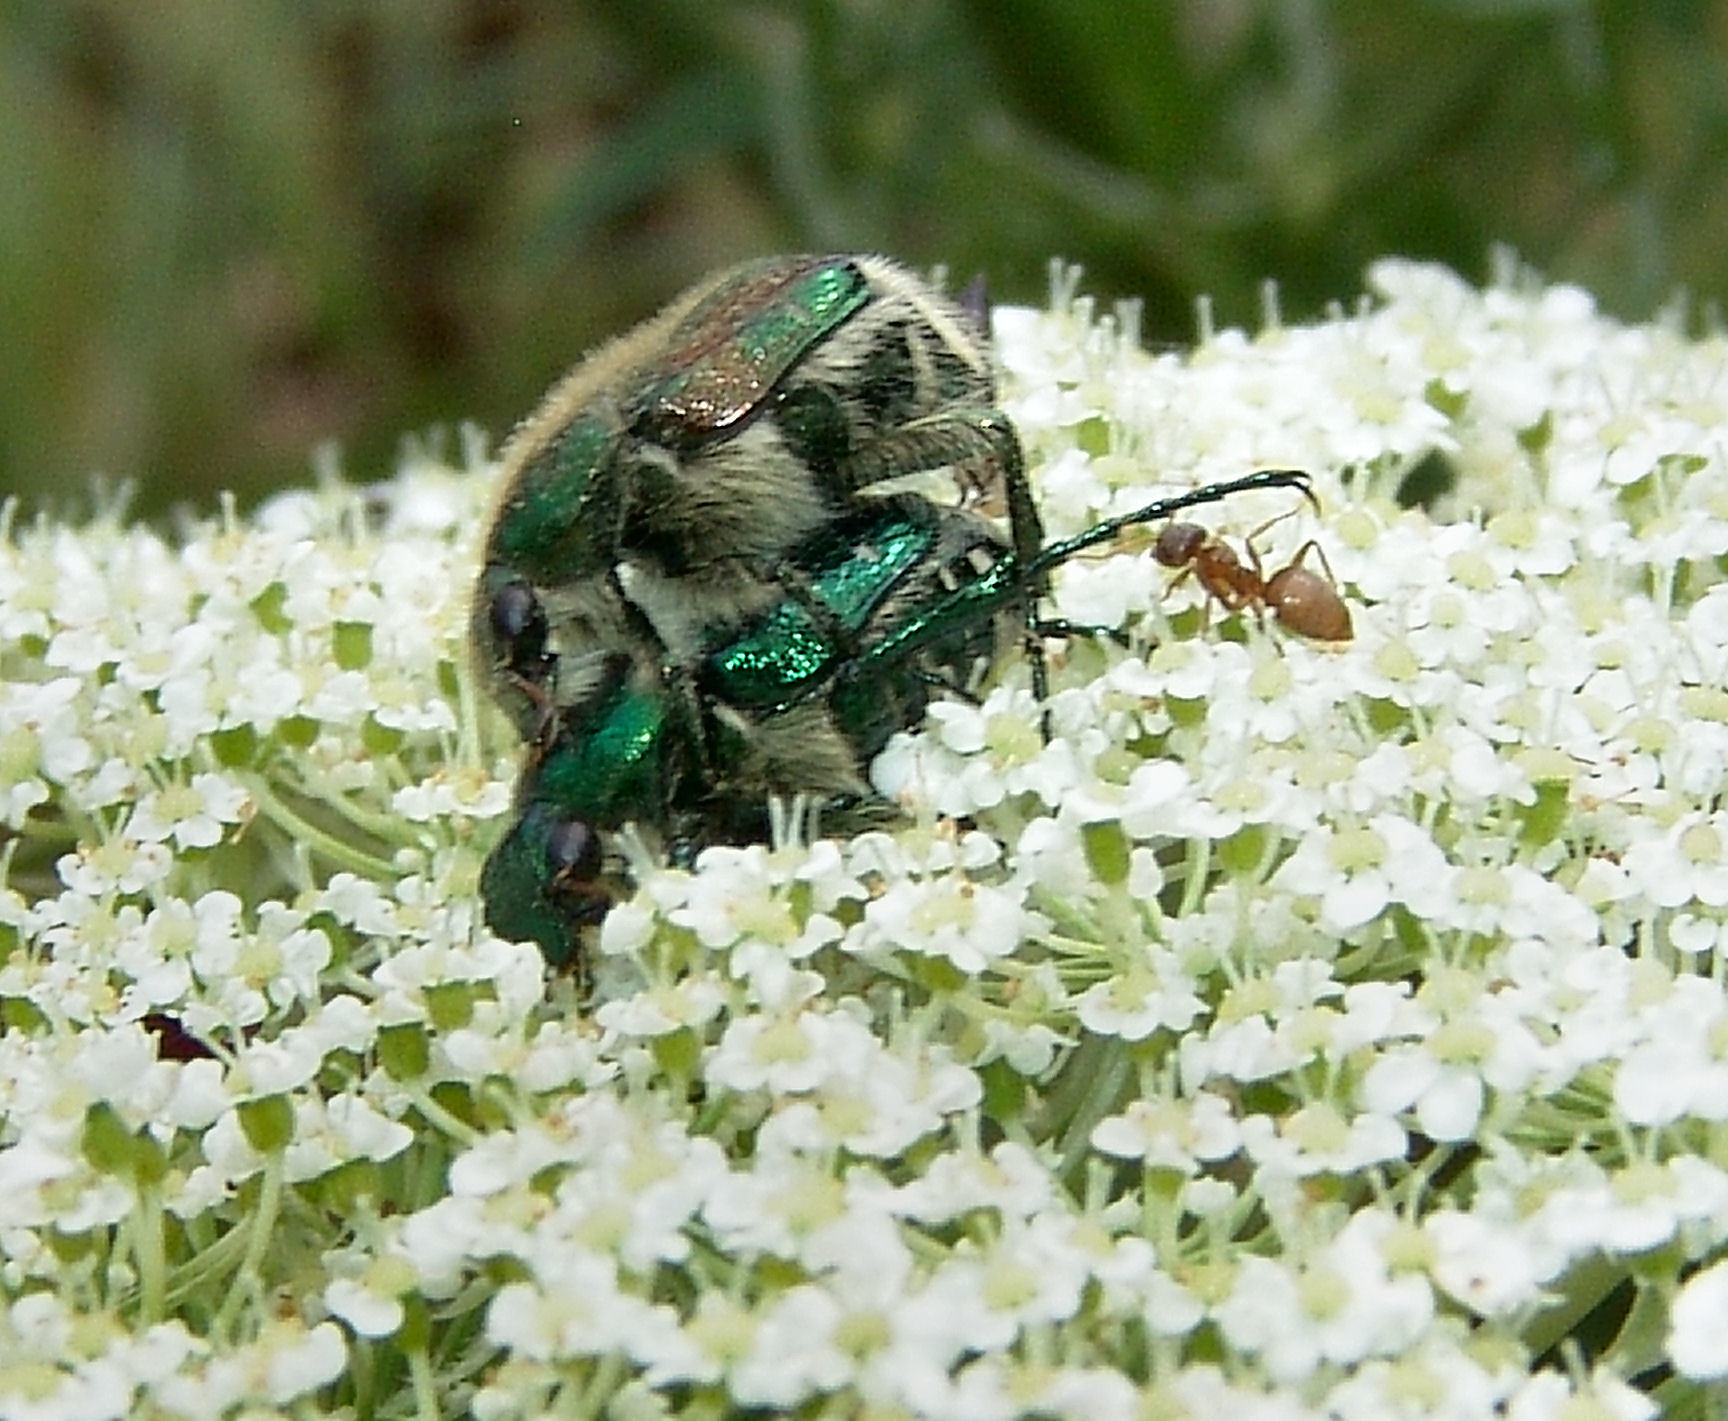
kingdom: Animalia
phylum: Arthropoda
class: Insecta
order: Coleoptera
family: Scarabaeidae
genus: Trichiotinus
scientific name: Trichiotinus lunulatus
